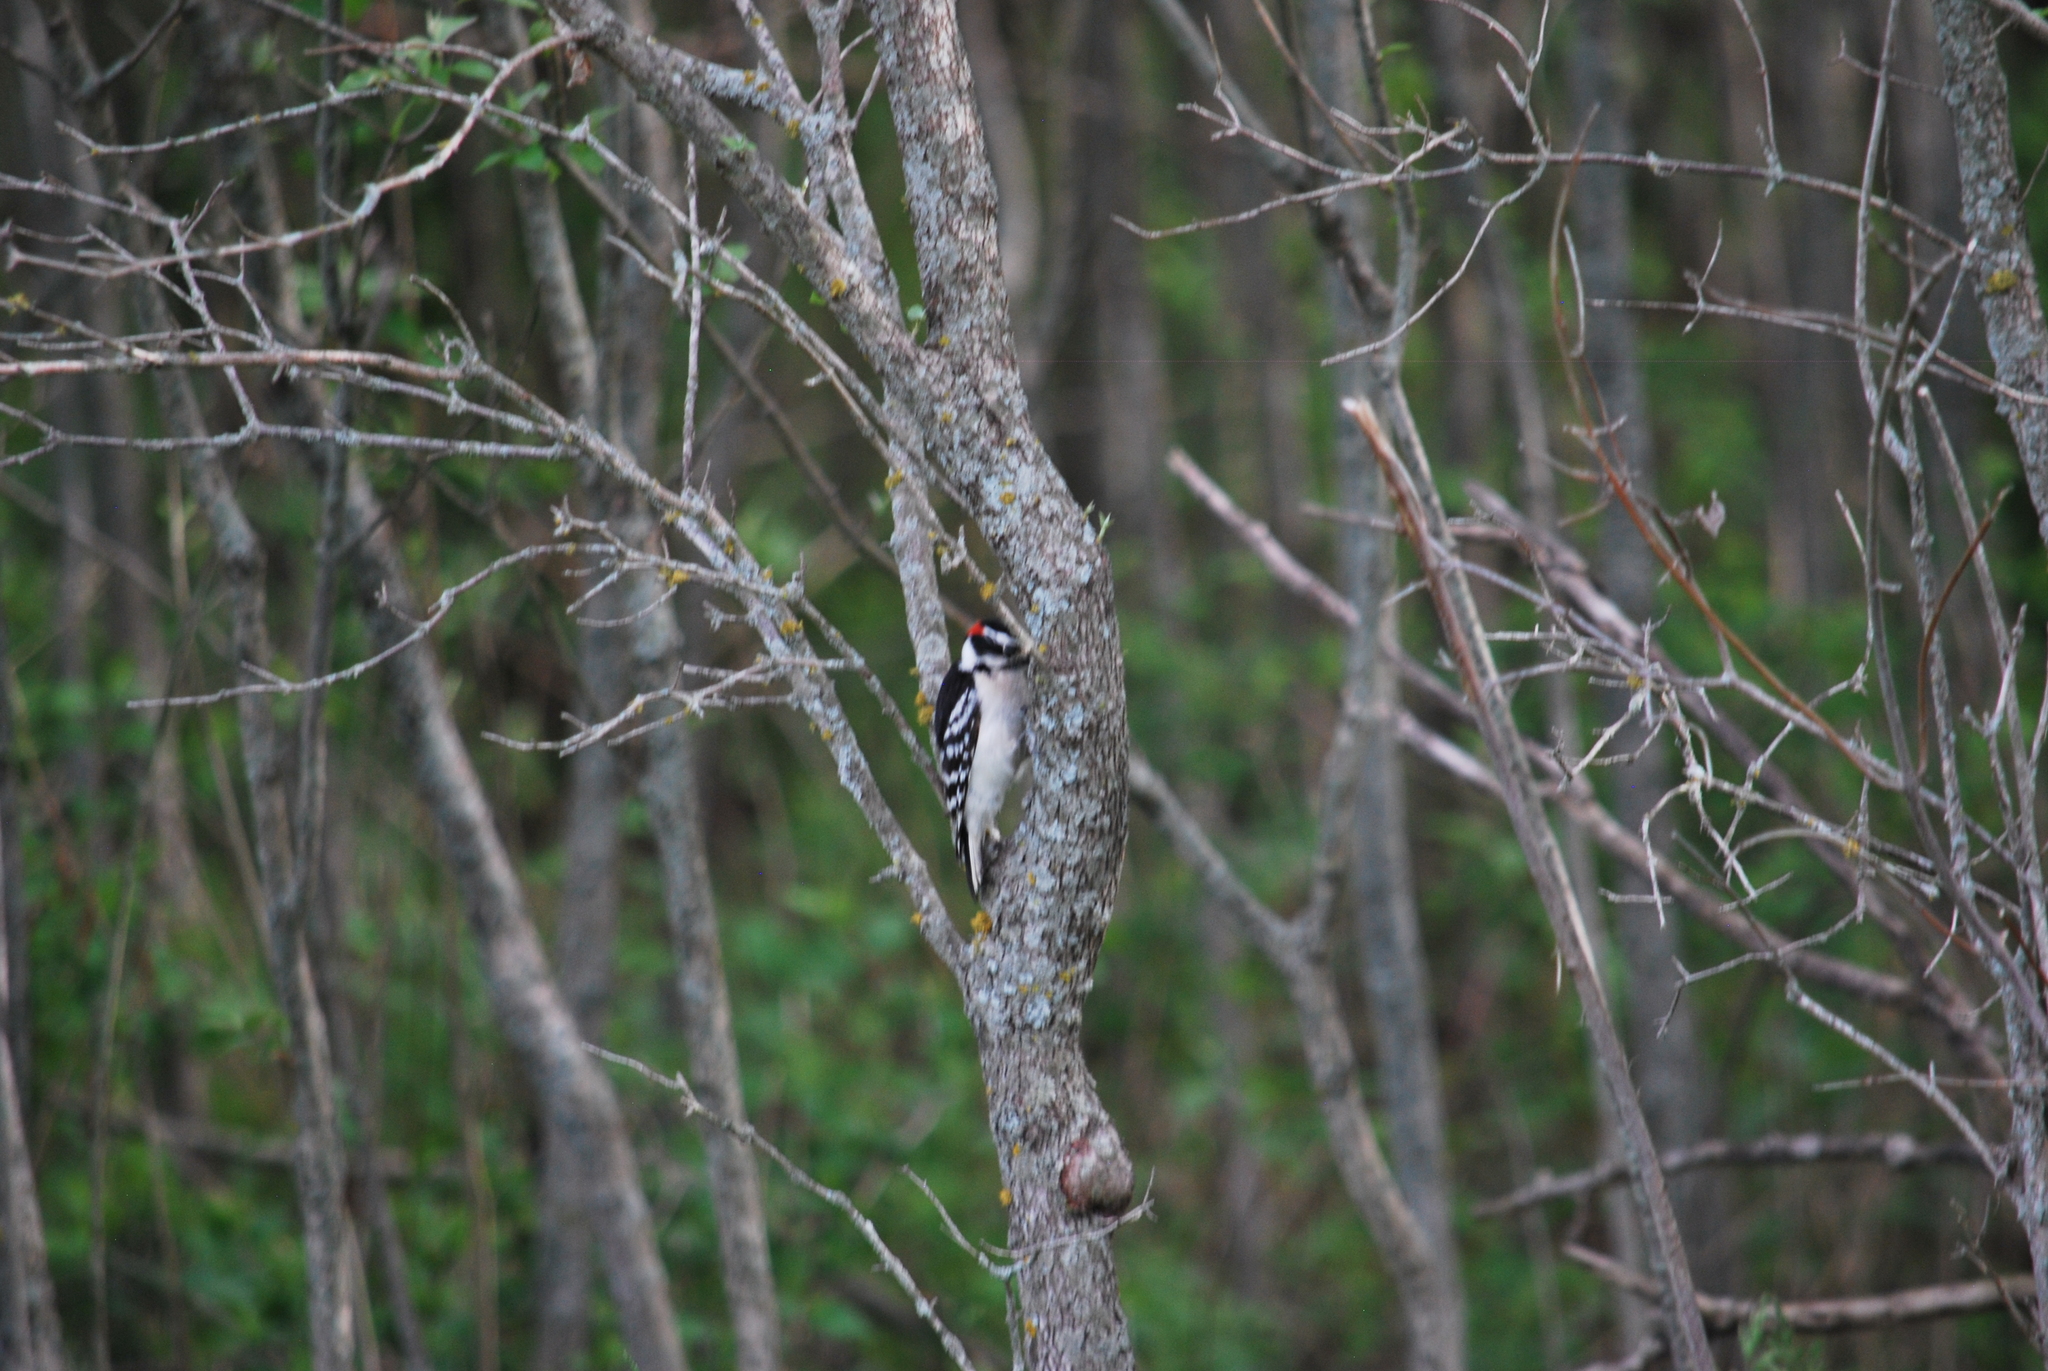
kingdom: Animalia
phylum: Chordata
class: Aves
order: Piciformes
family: Picidae
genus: Dryobates
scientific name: Dryobates pubescens
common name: Downy woodpecker
